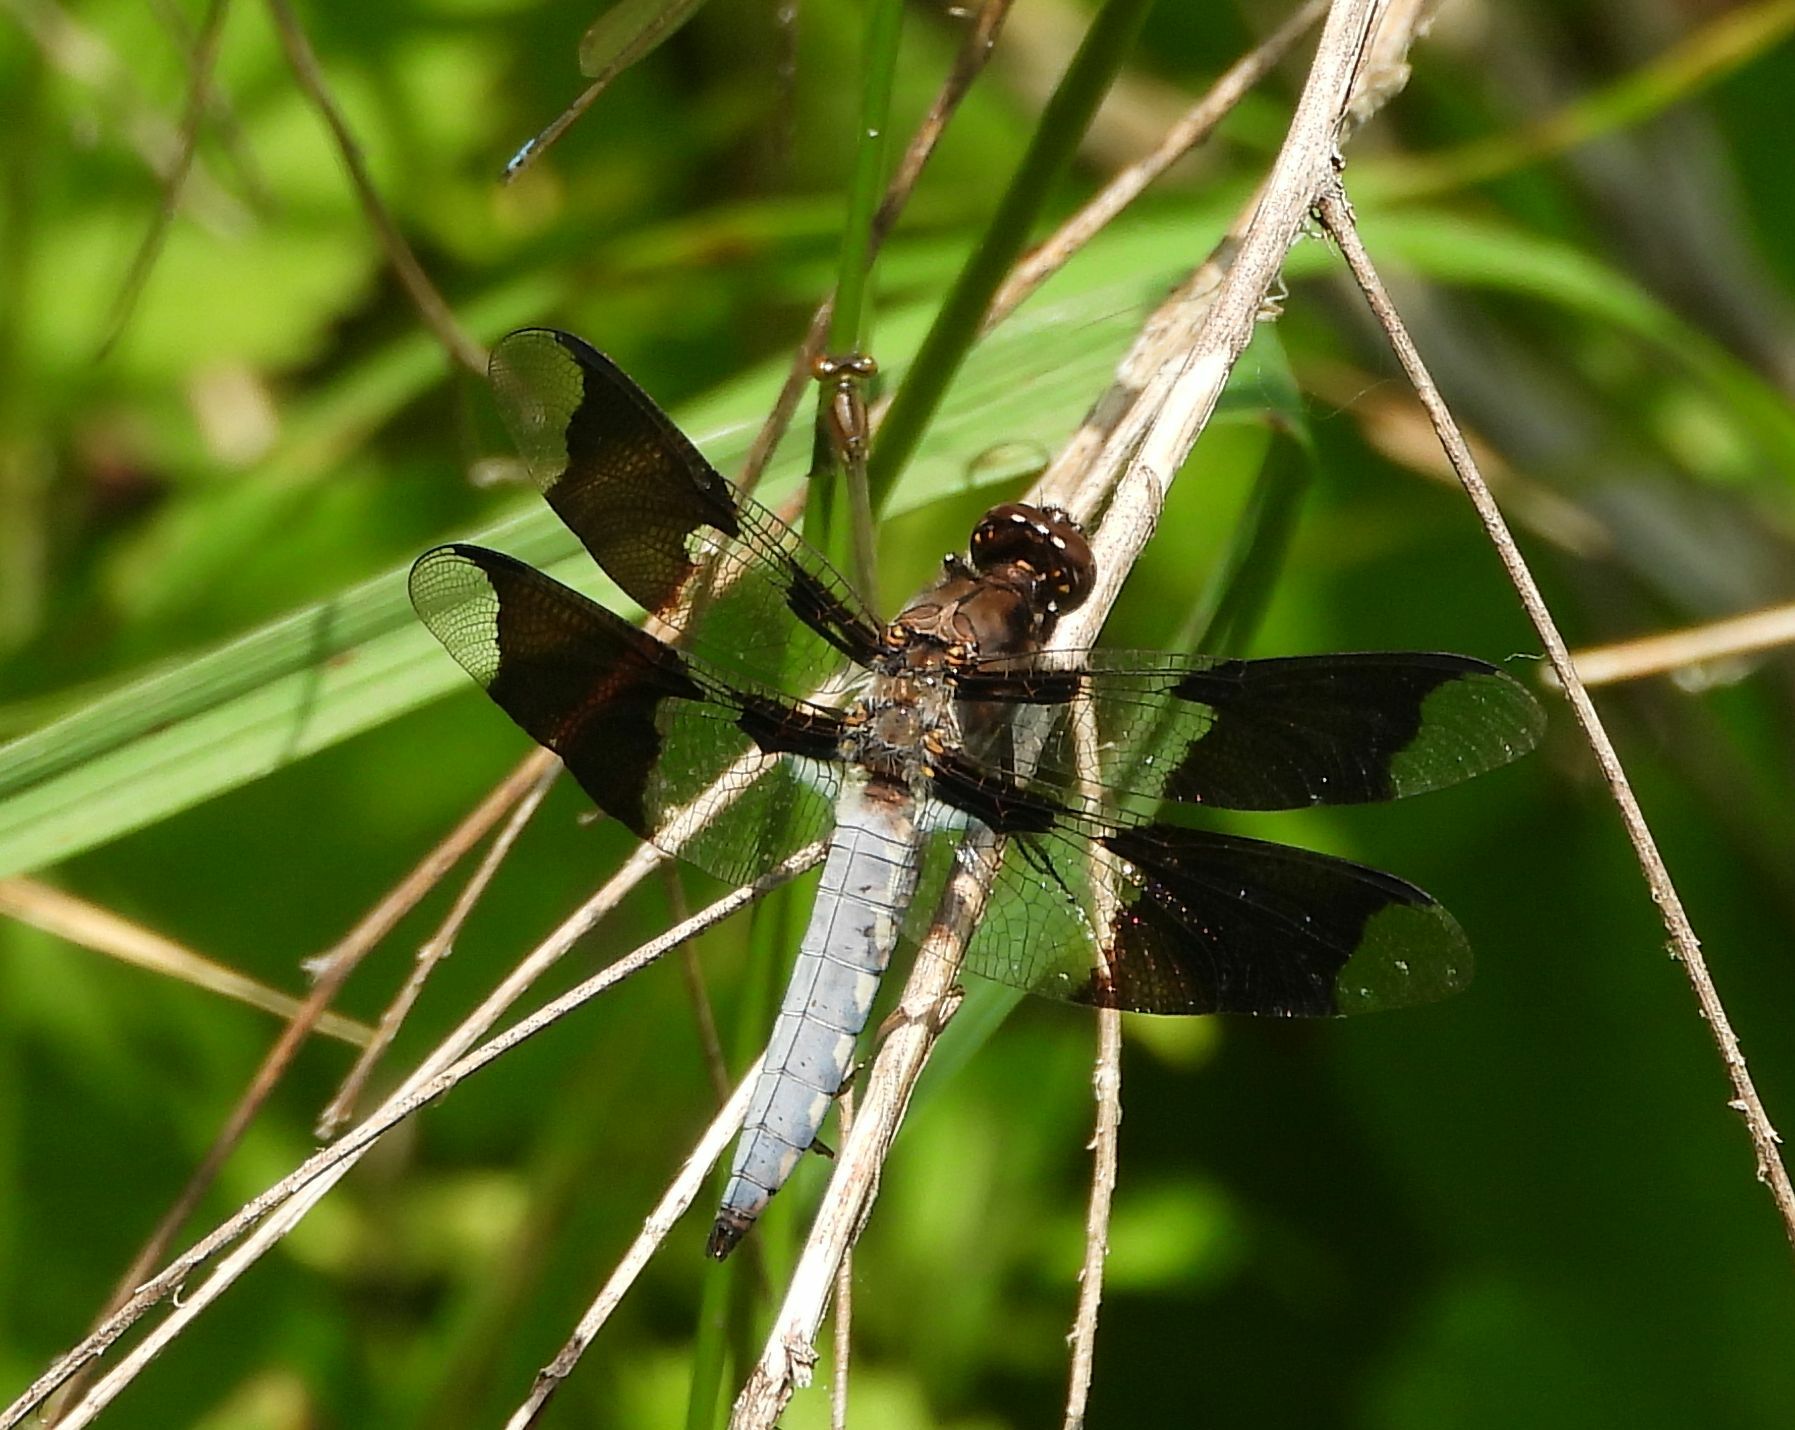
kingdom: Animalia
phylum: Arthropoda
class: Insecta
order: Odonata
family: Libellulidae
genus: Plathemis
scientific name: Plathemis lydia
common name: Common whitetail
